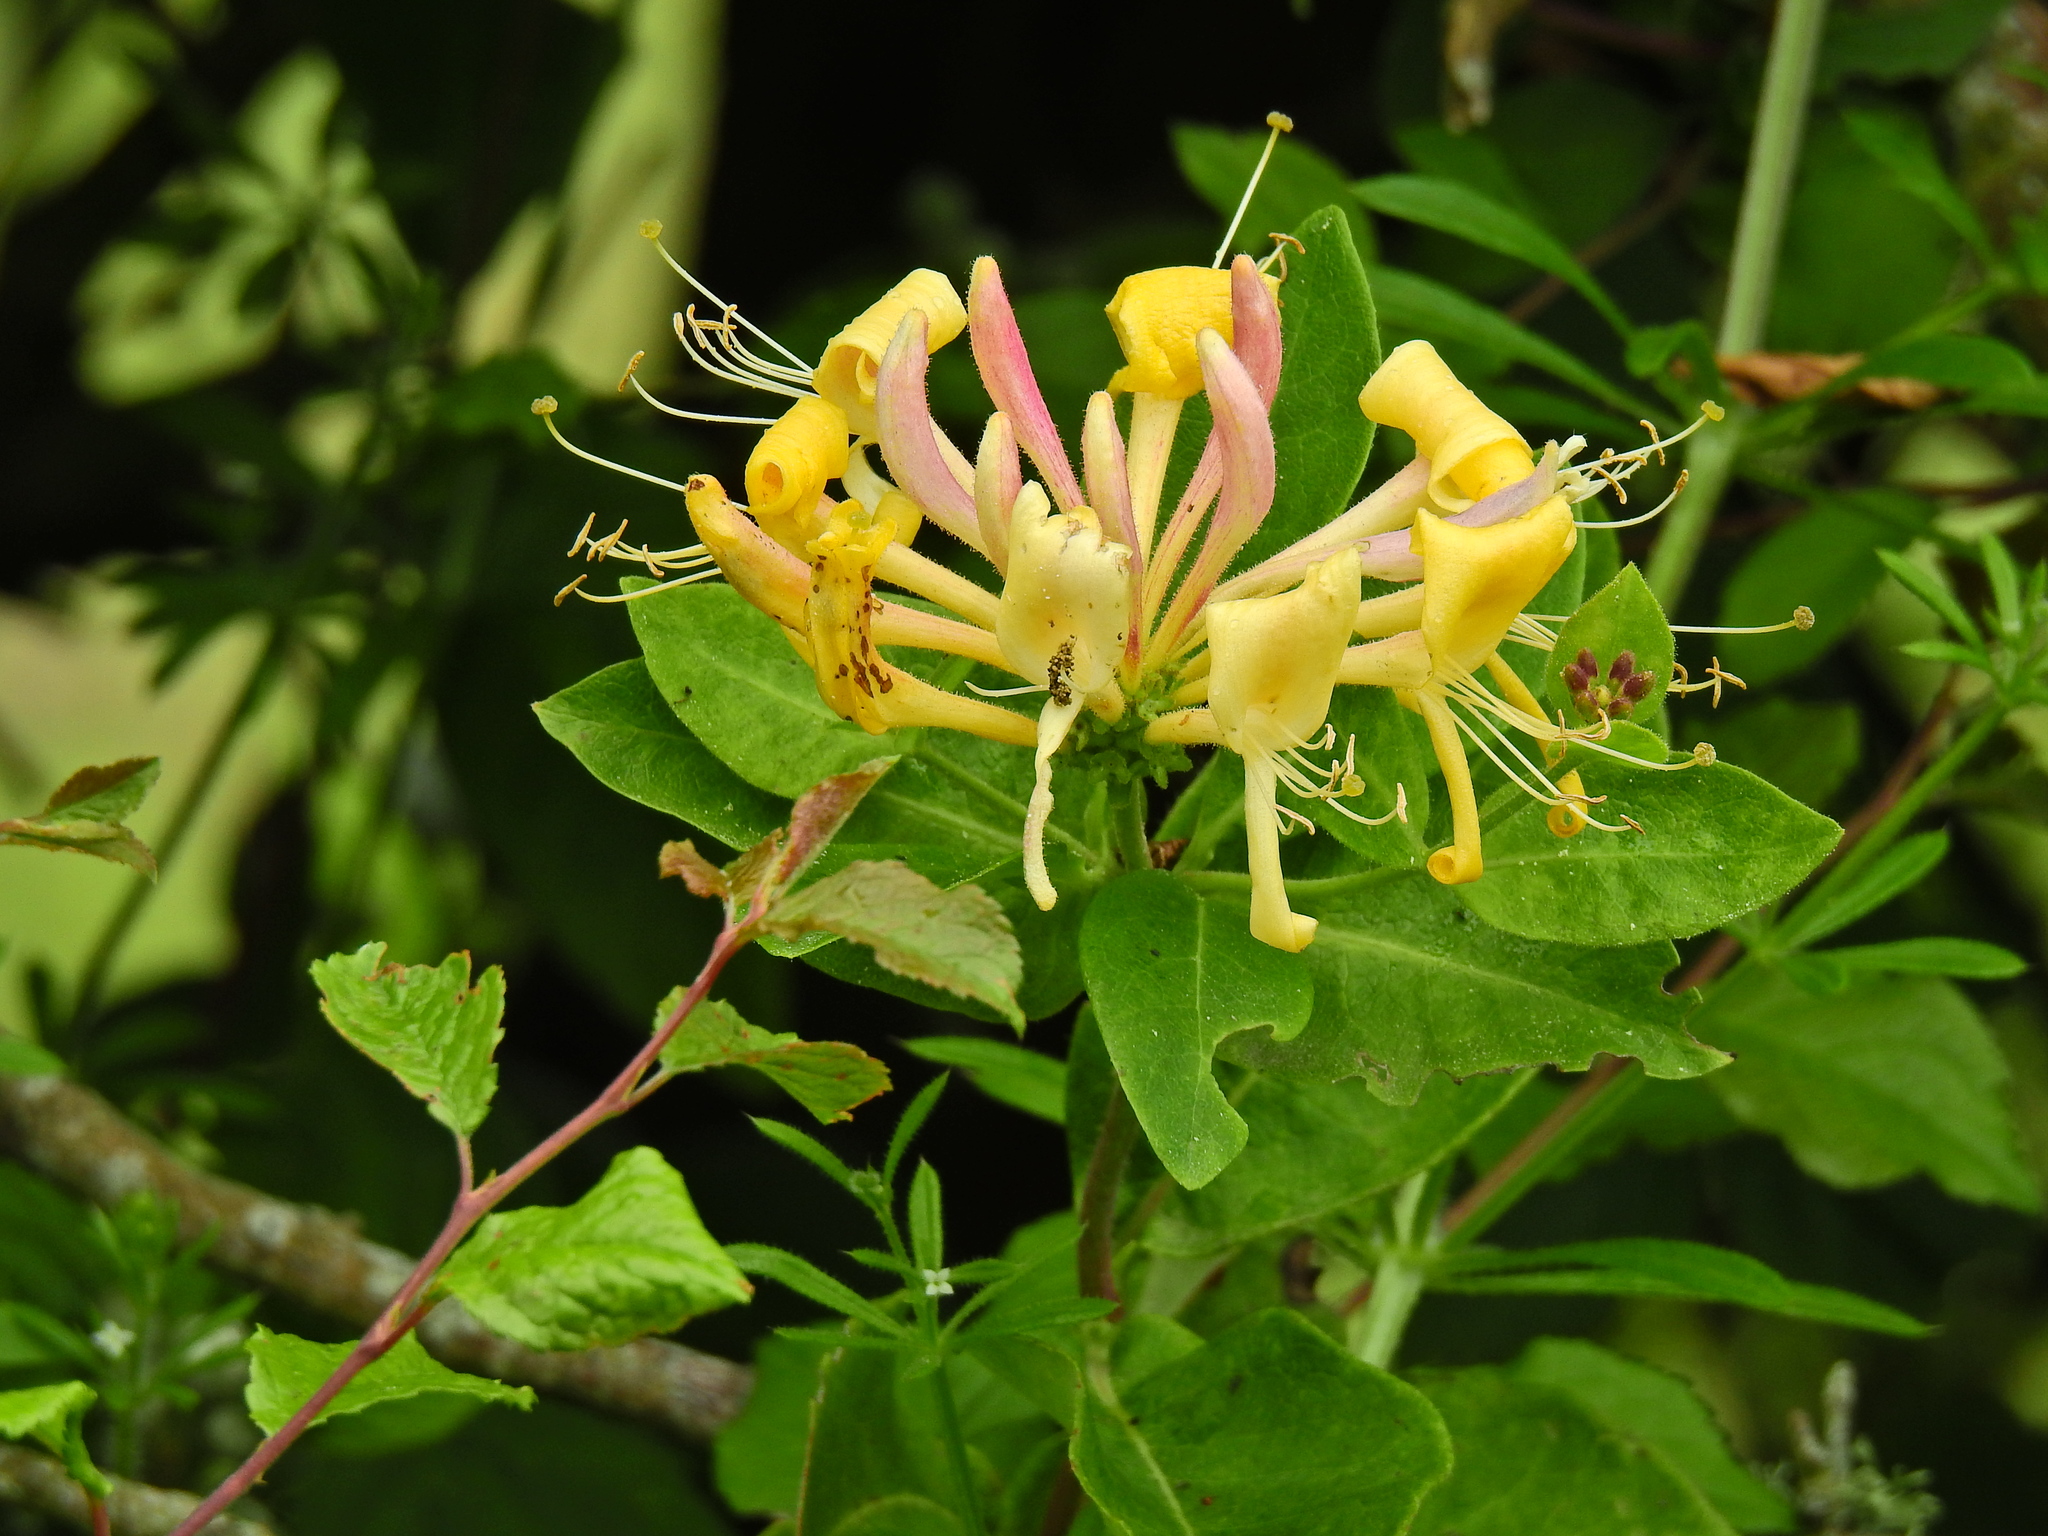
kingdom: Plantae
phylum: Tracheophyta
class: Magnoliopsida
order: Dipsacales
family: Caprifoliaceae
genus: Lonicera
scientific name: Lonicera periclymenum
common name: European honeysuckle
